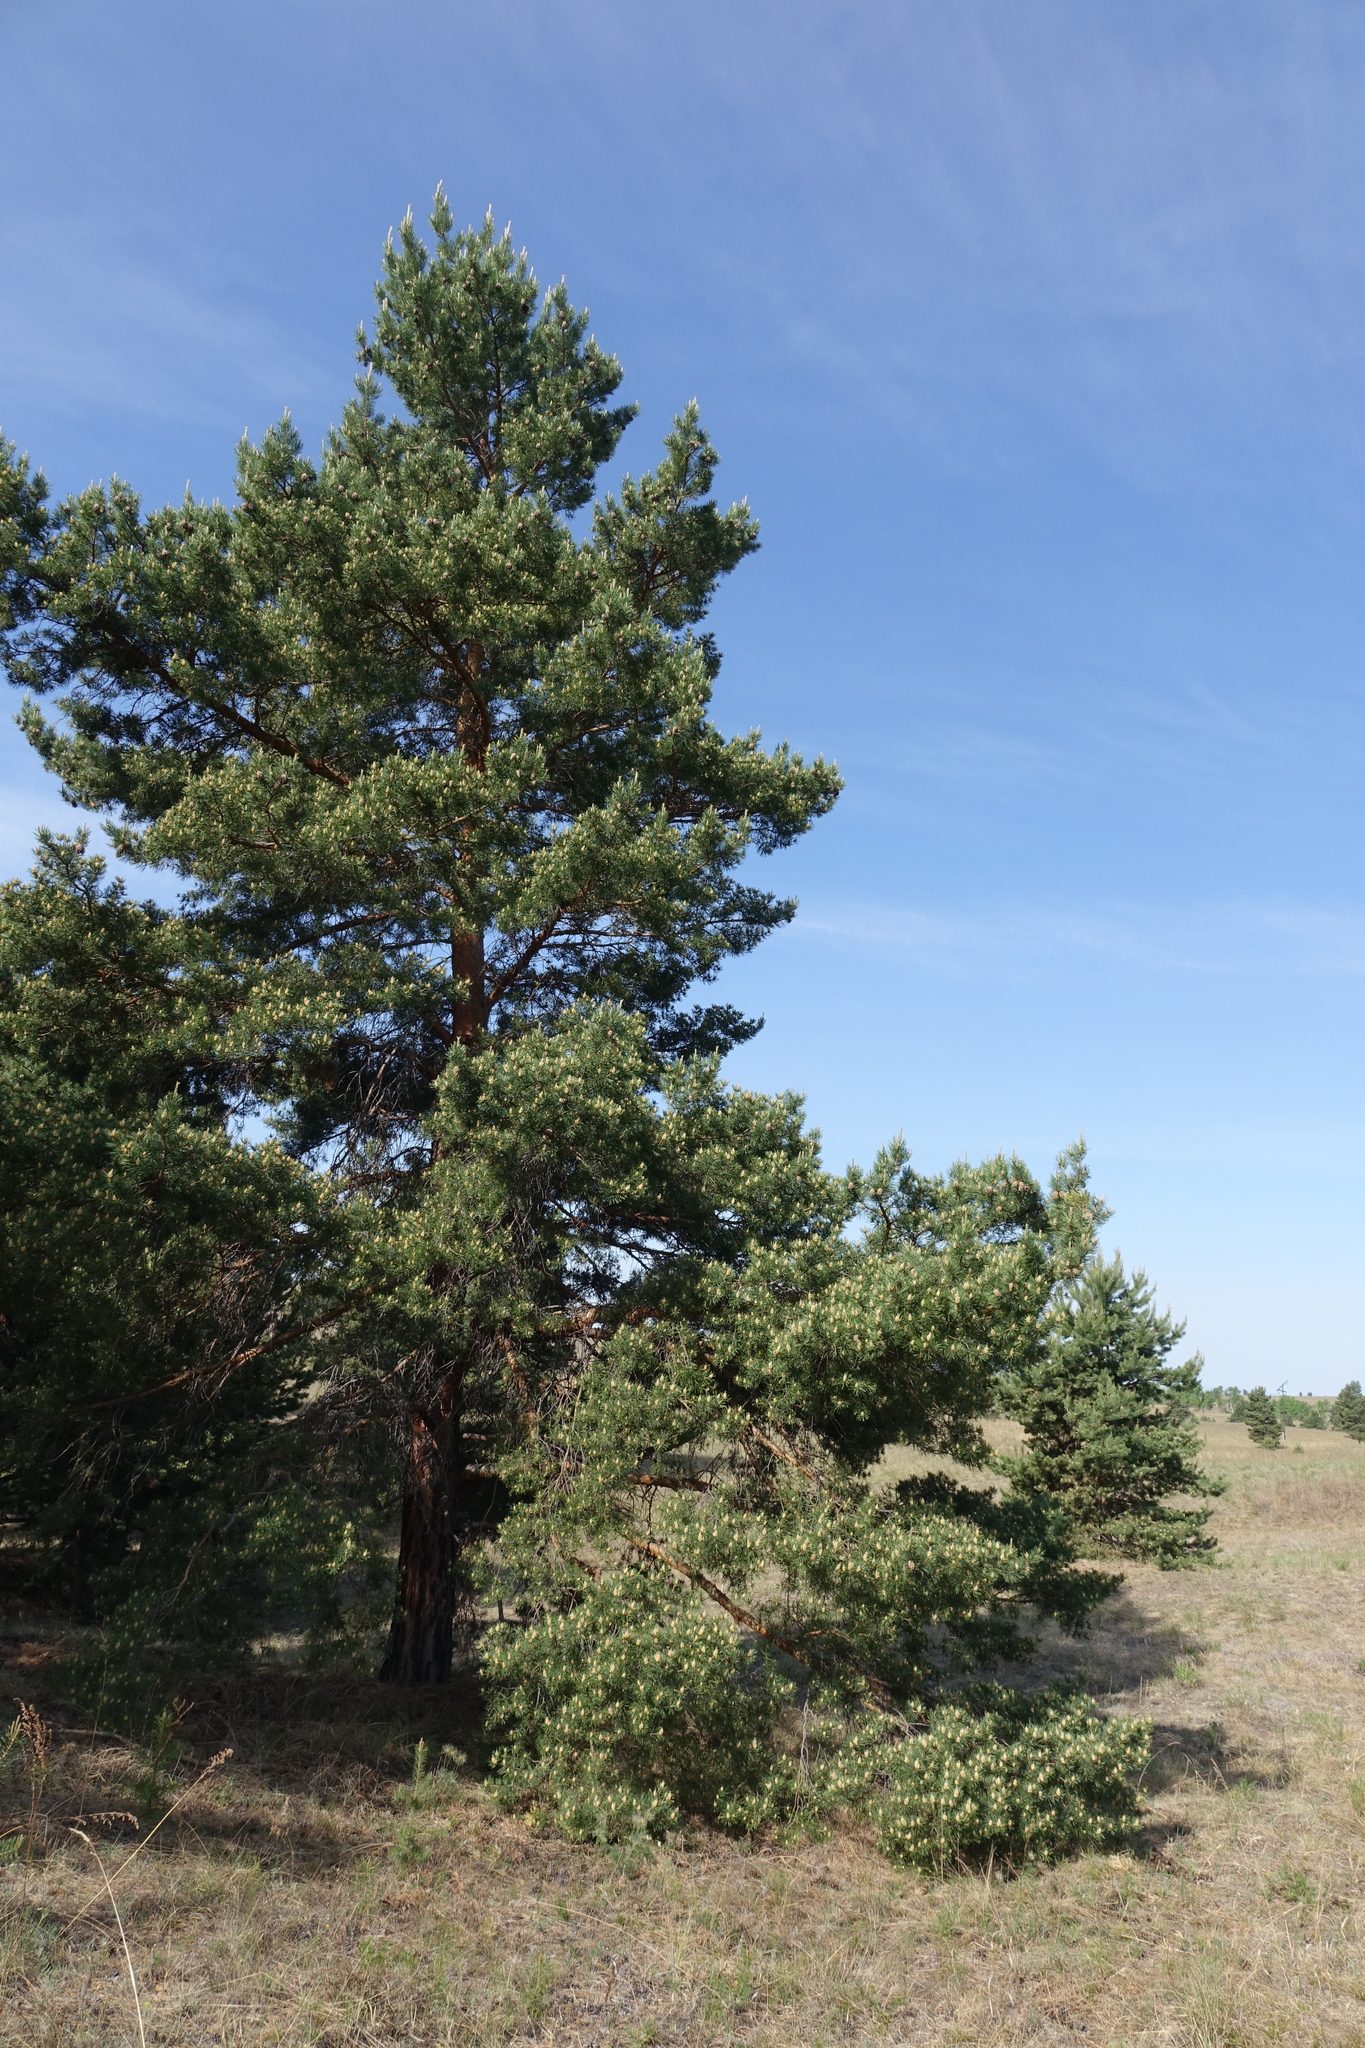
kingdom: Plantae
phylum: Tracheophyta
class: Pinopsida
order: Pinales
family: Pinaceae
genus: Pinus
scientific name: Pinus sylvestris
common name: Scots pine
